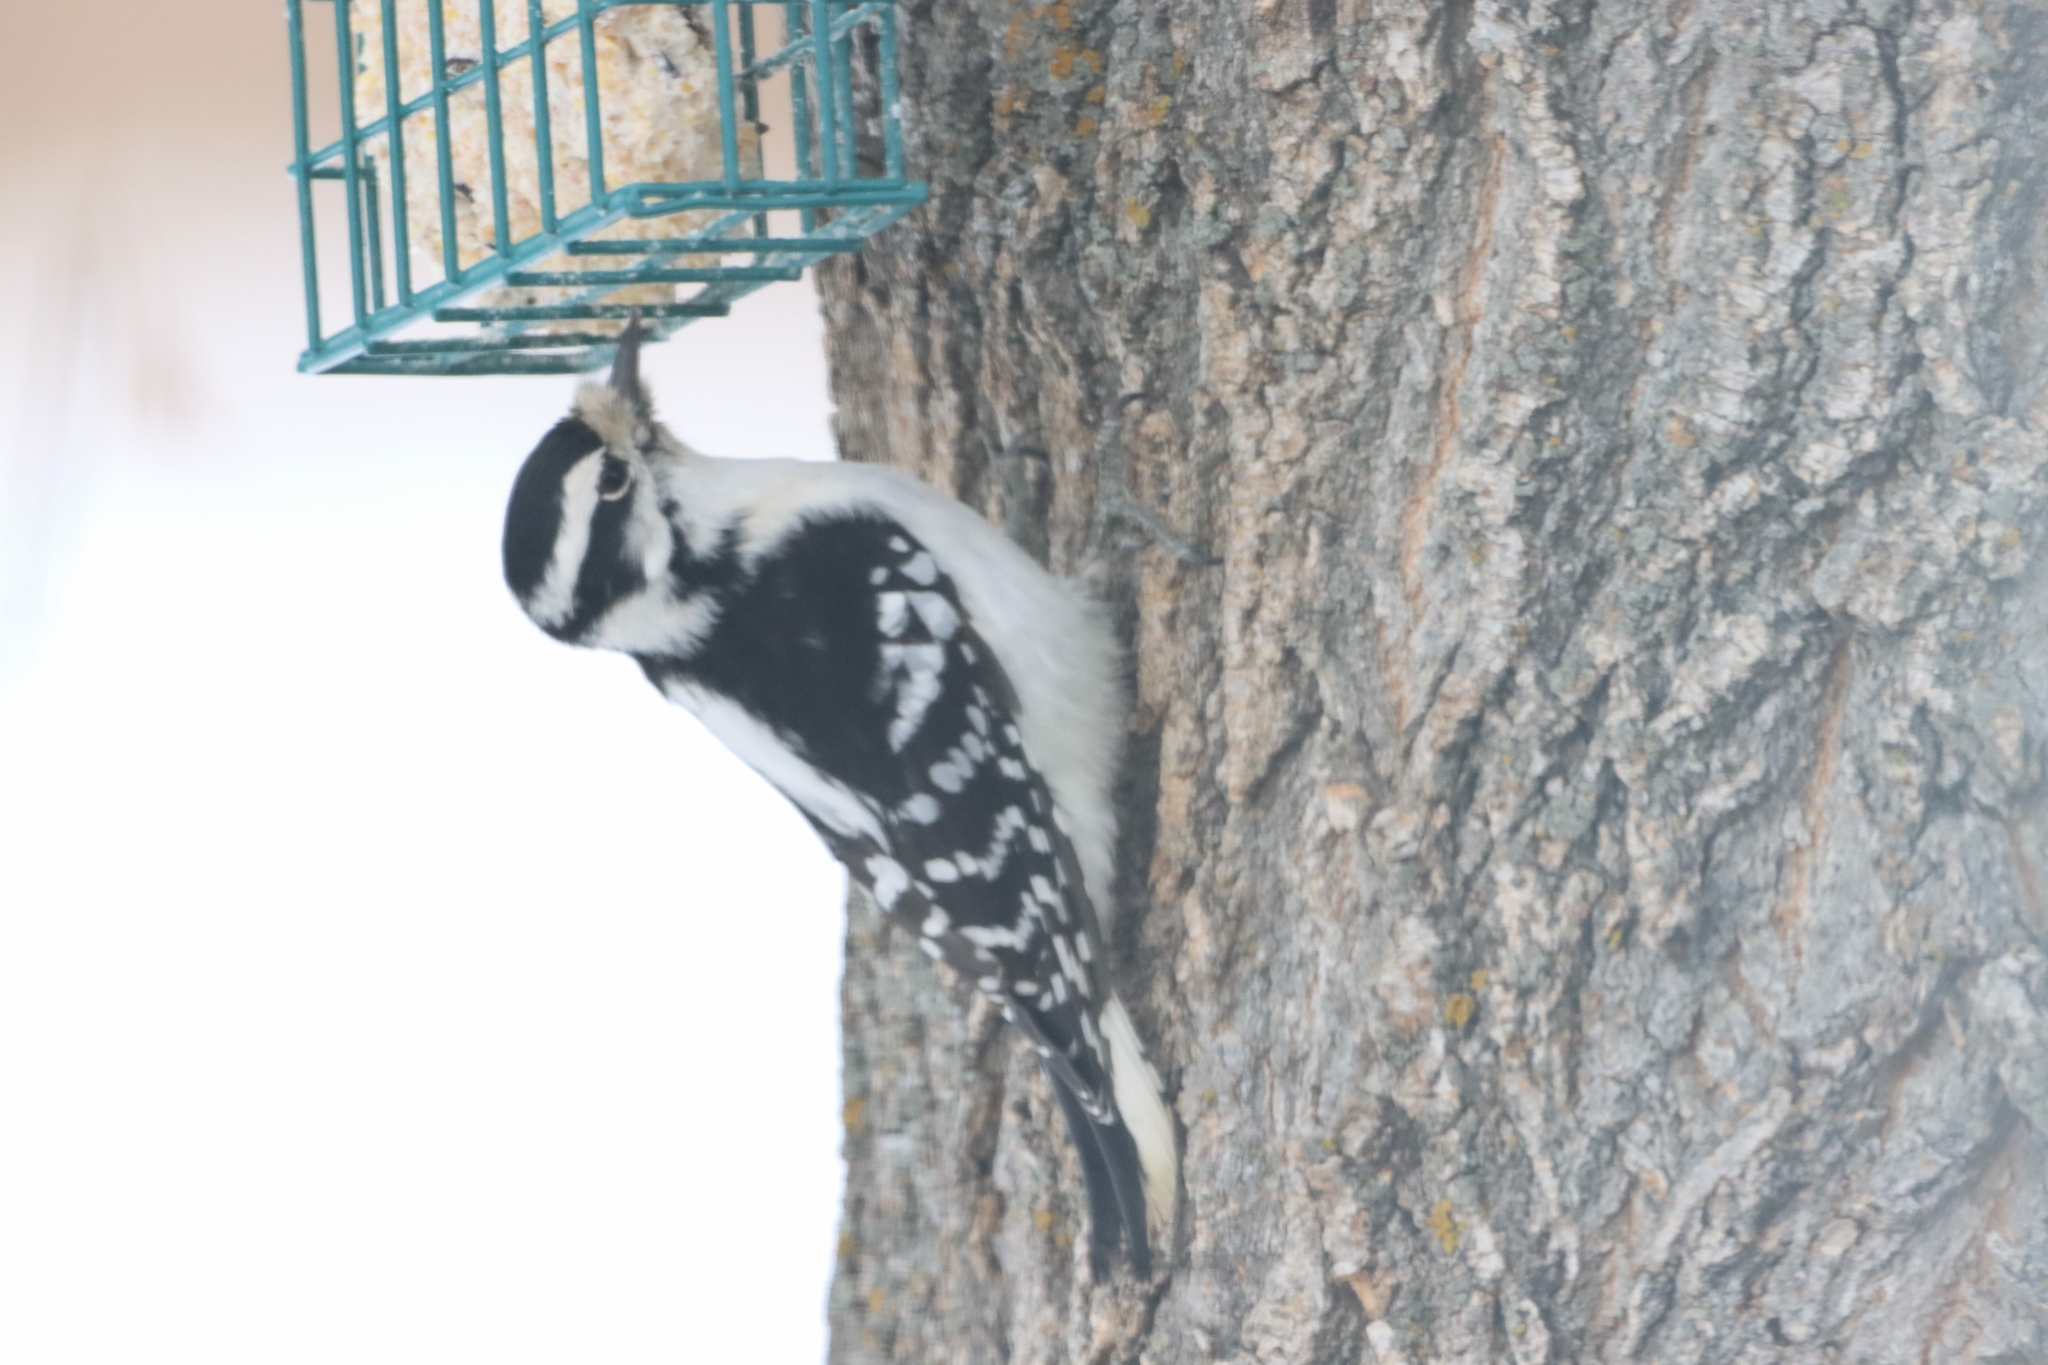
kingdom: Animalia
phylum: Chordata
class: Aves
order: Piciformes
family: Picidae
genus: Dryobates
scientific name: Dryobates pubescens
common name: Downy woodpecker
